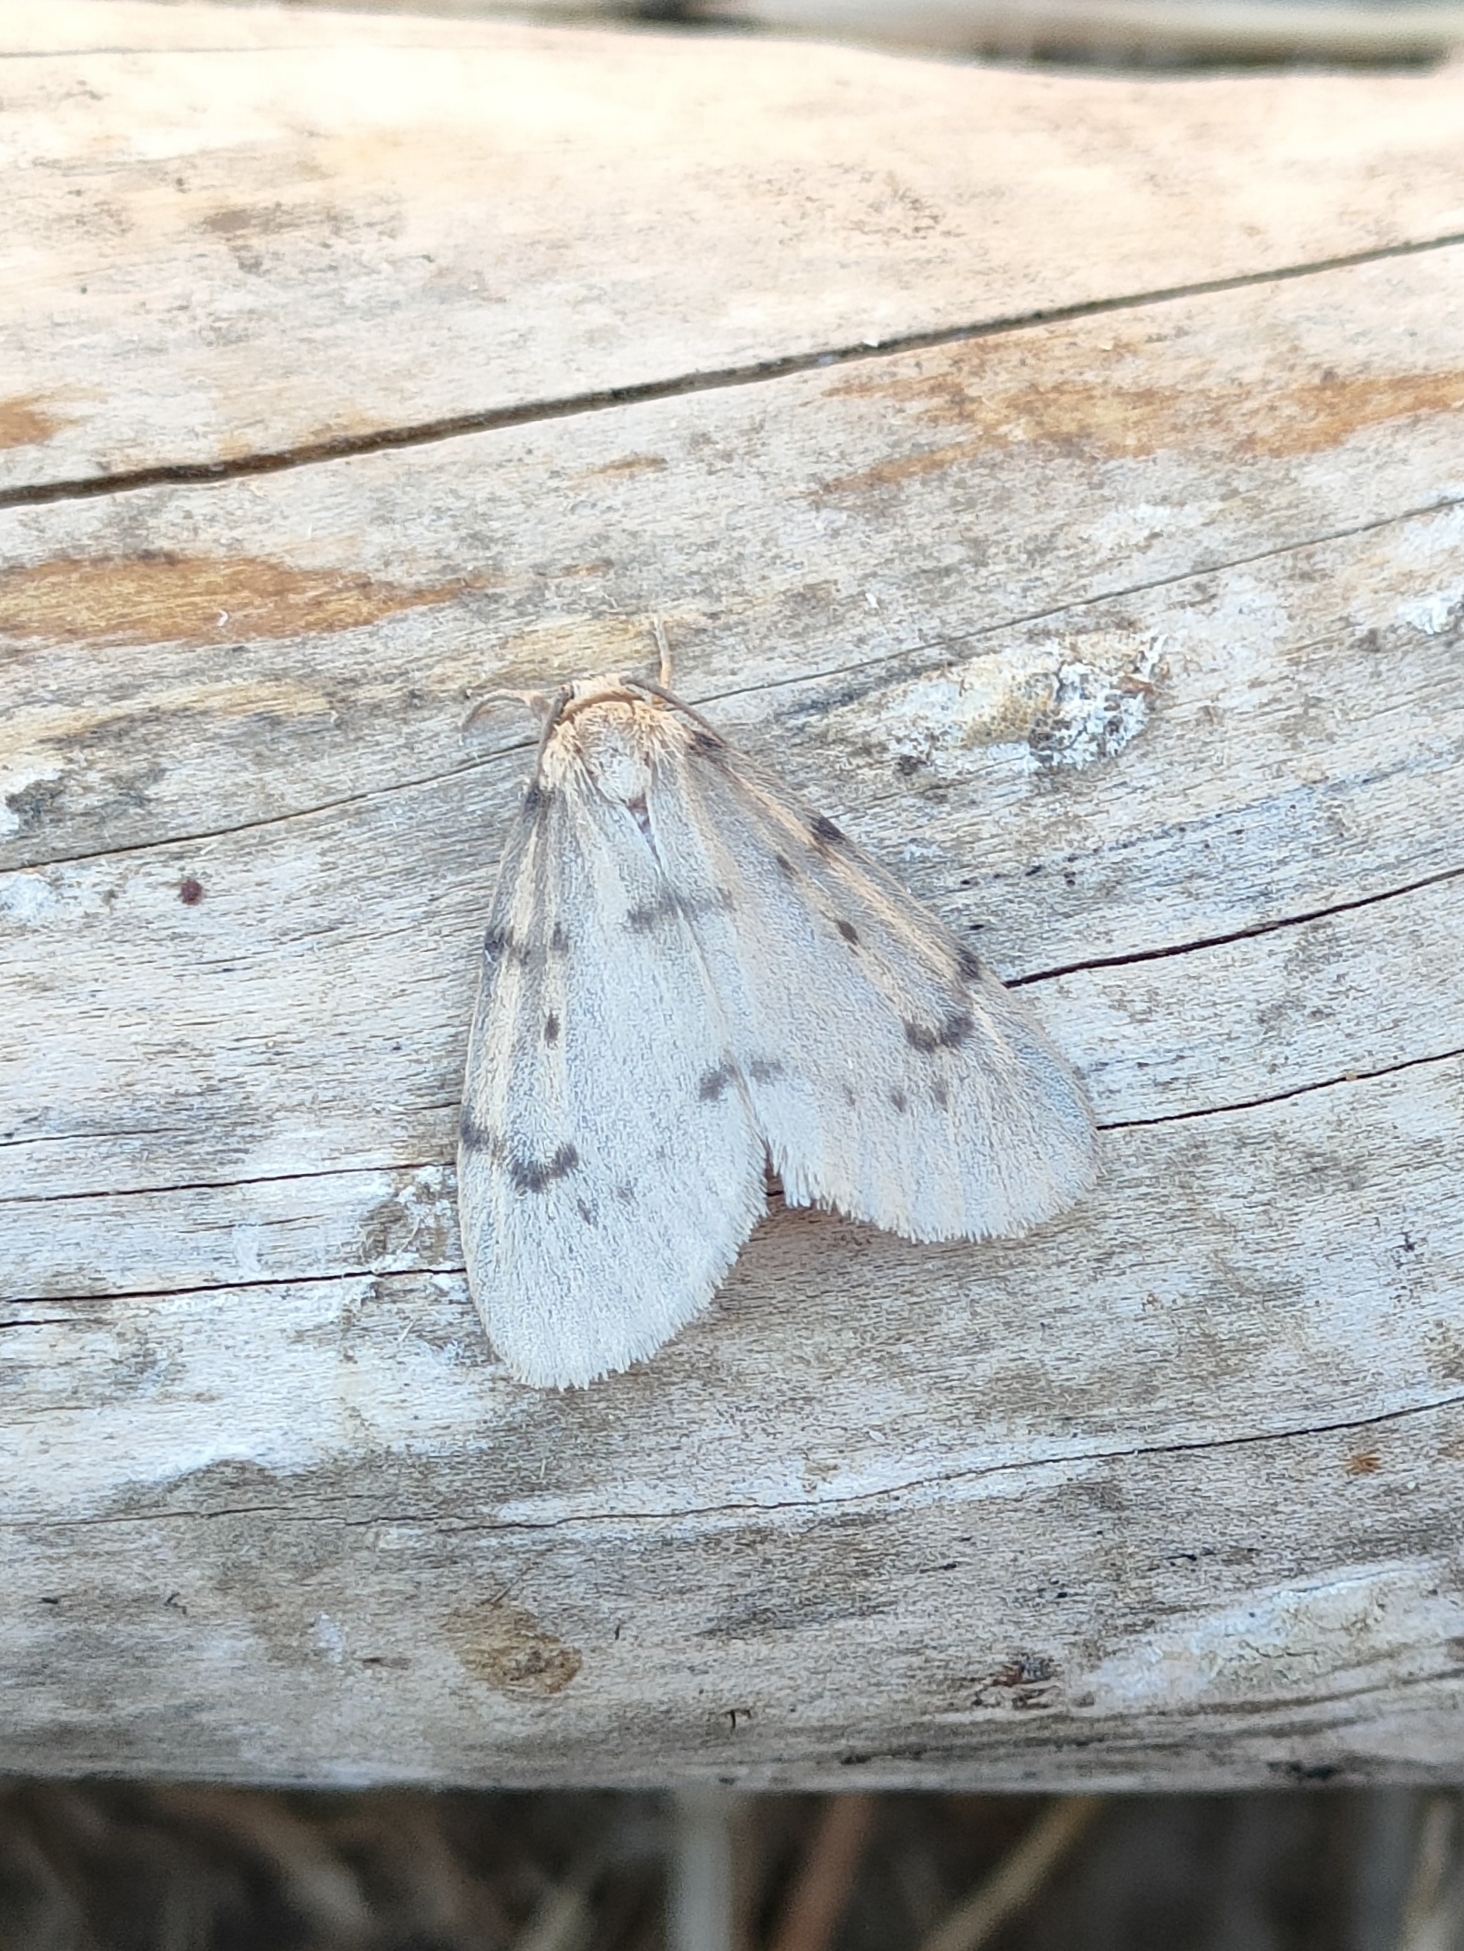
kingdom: Animalia
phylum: Arthropoda
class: Insecta
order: Lepidoptera
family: Erebidae
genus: Paidia
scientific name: Paidia rica
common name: Glaucous muslin
